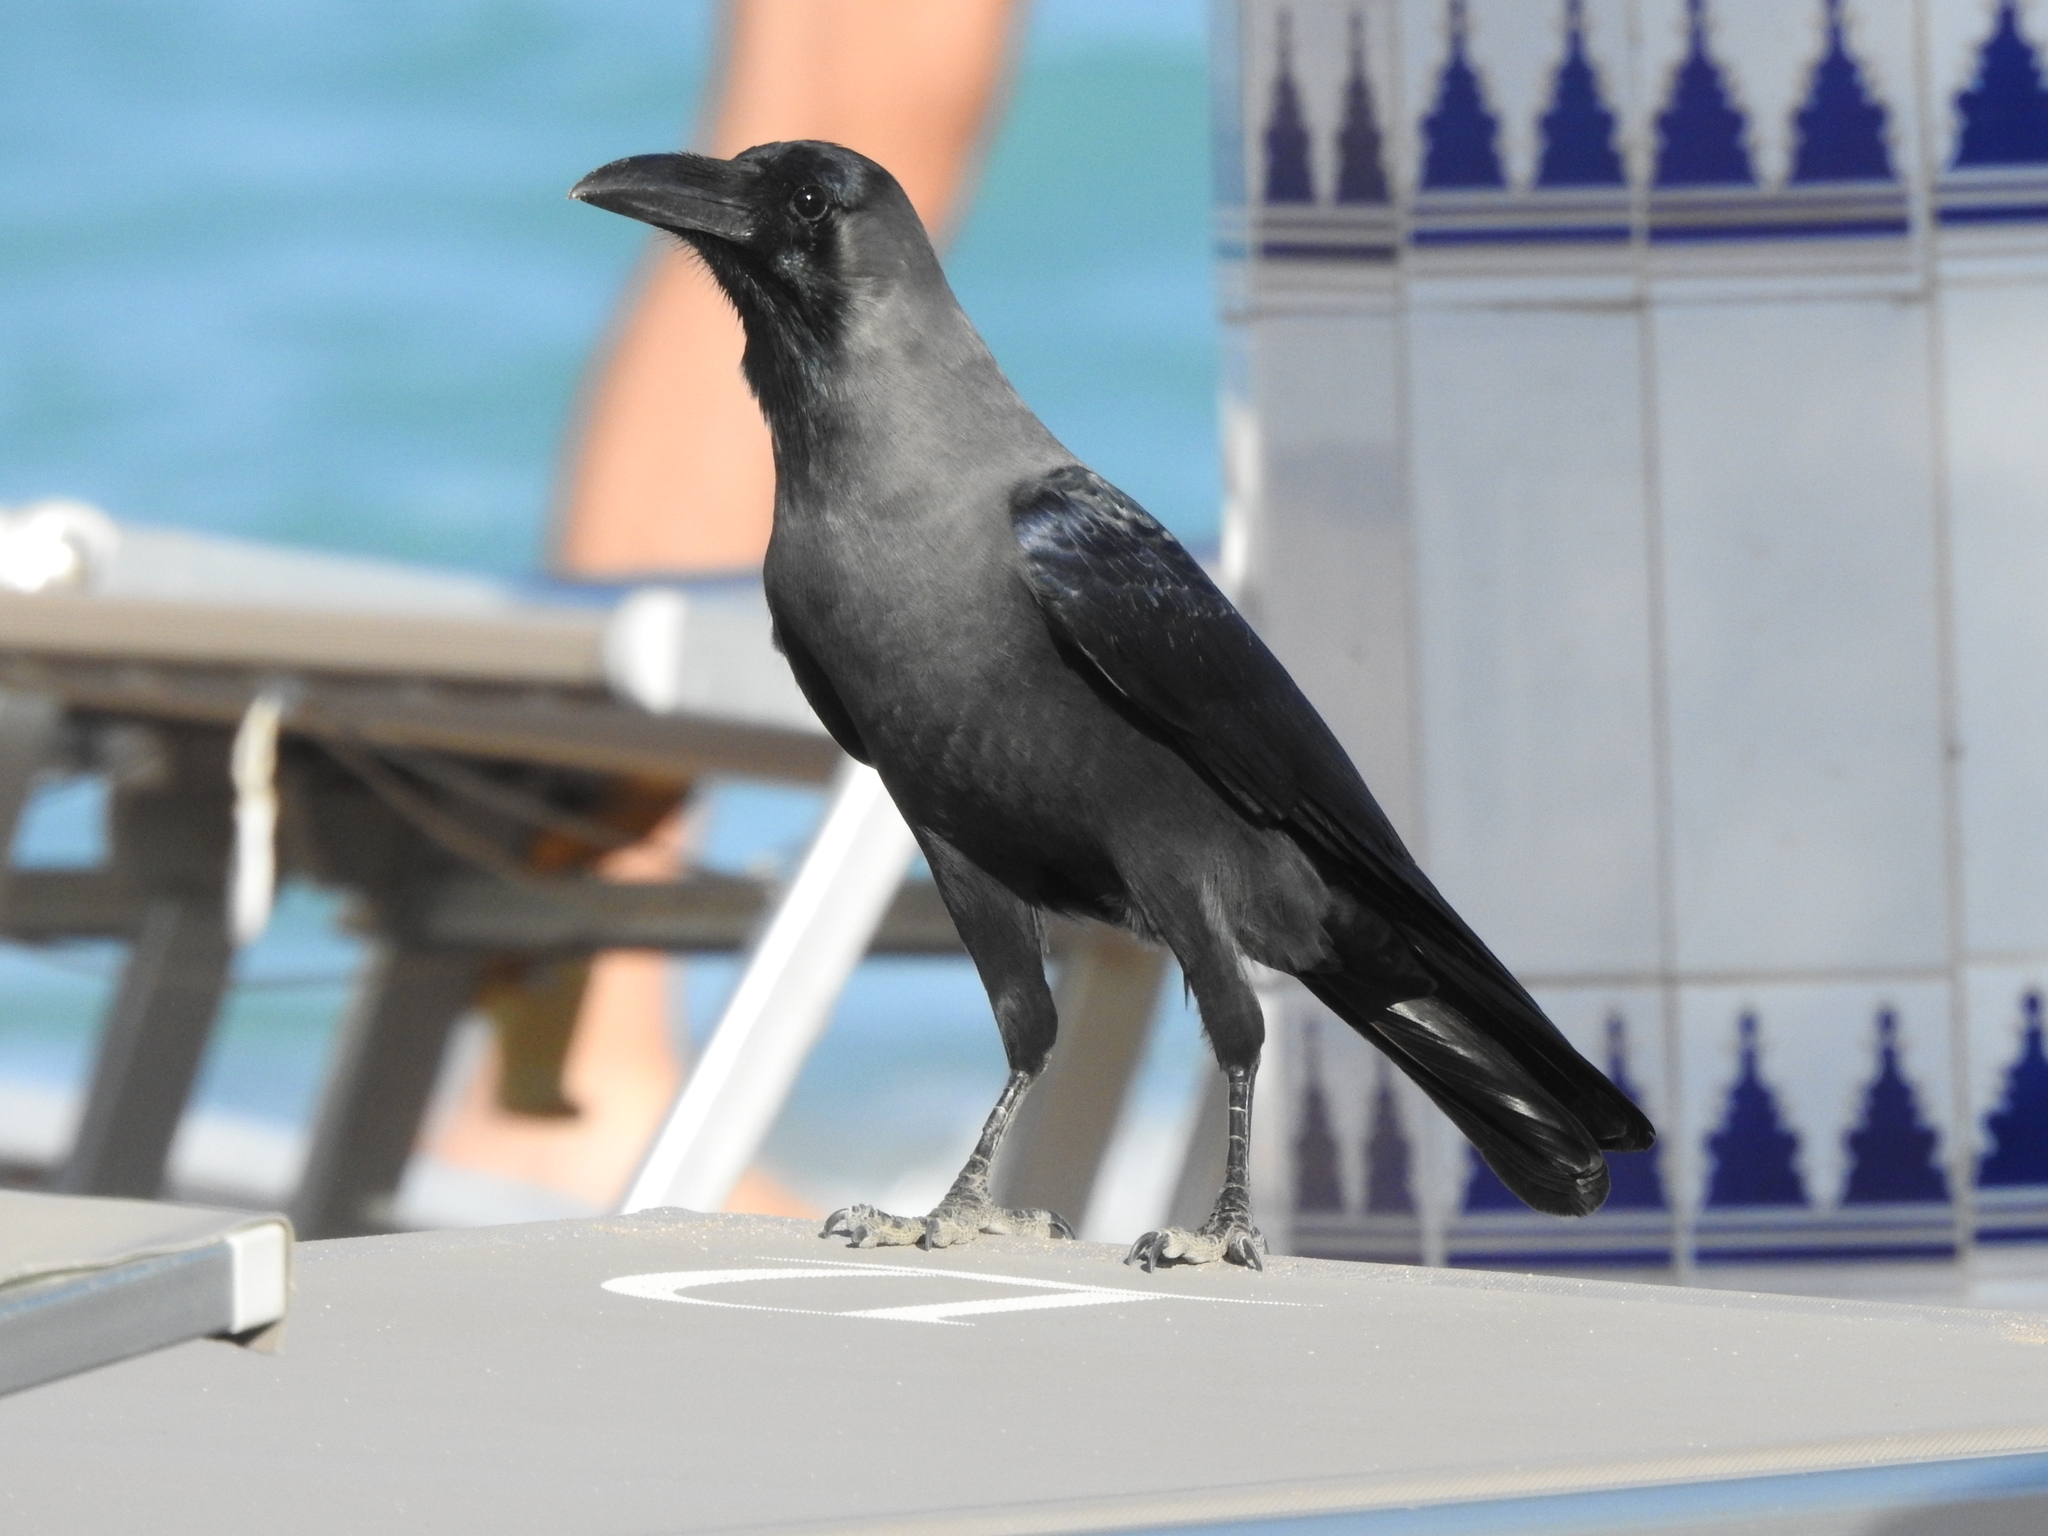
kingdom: Animalia
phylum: Chordata
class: Aves
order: Passeriformes
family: Corvidae
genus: Corvus
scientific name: Corvus splendens
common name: House crow
